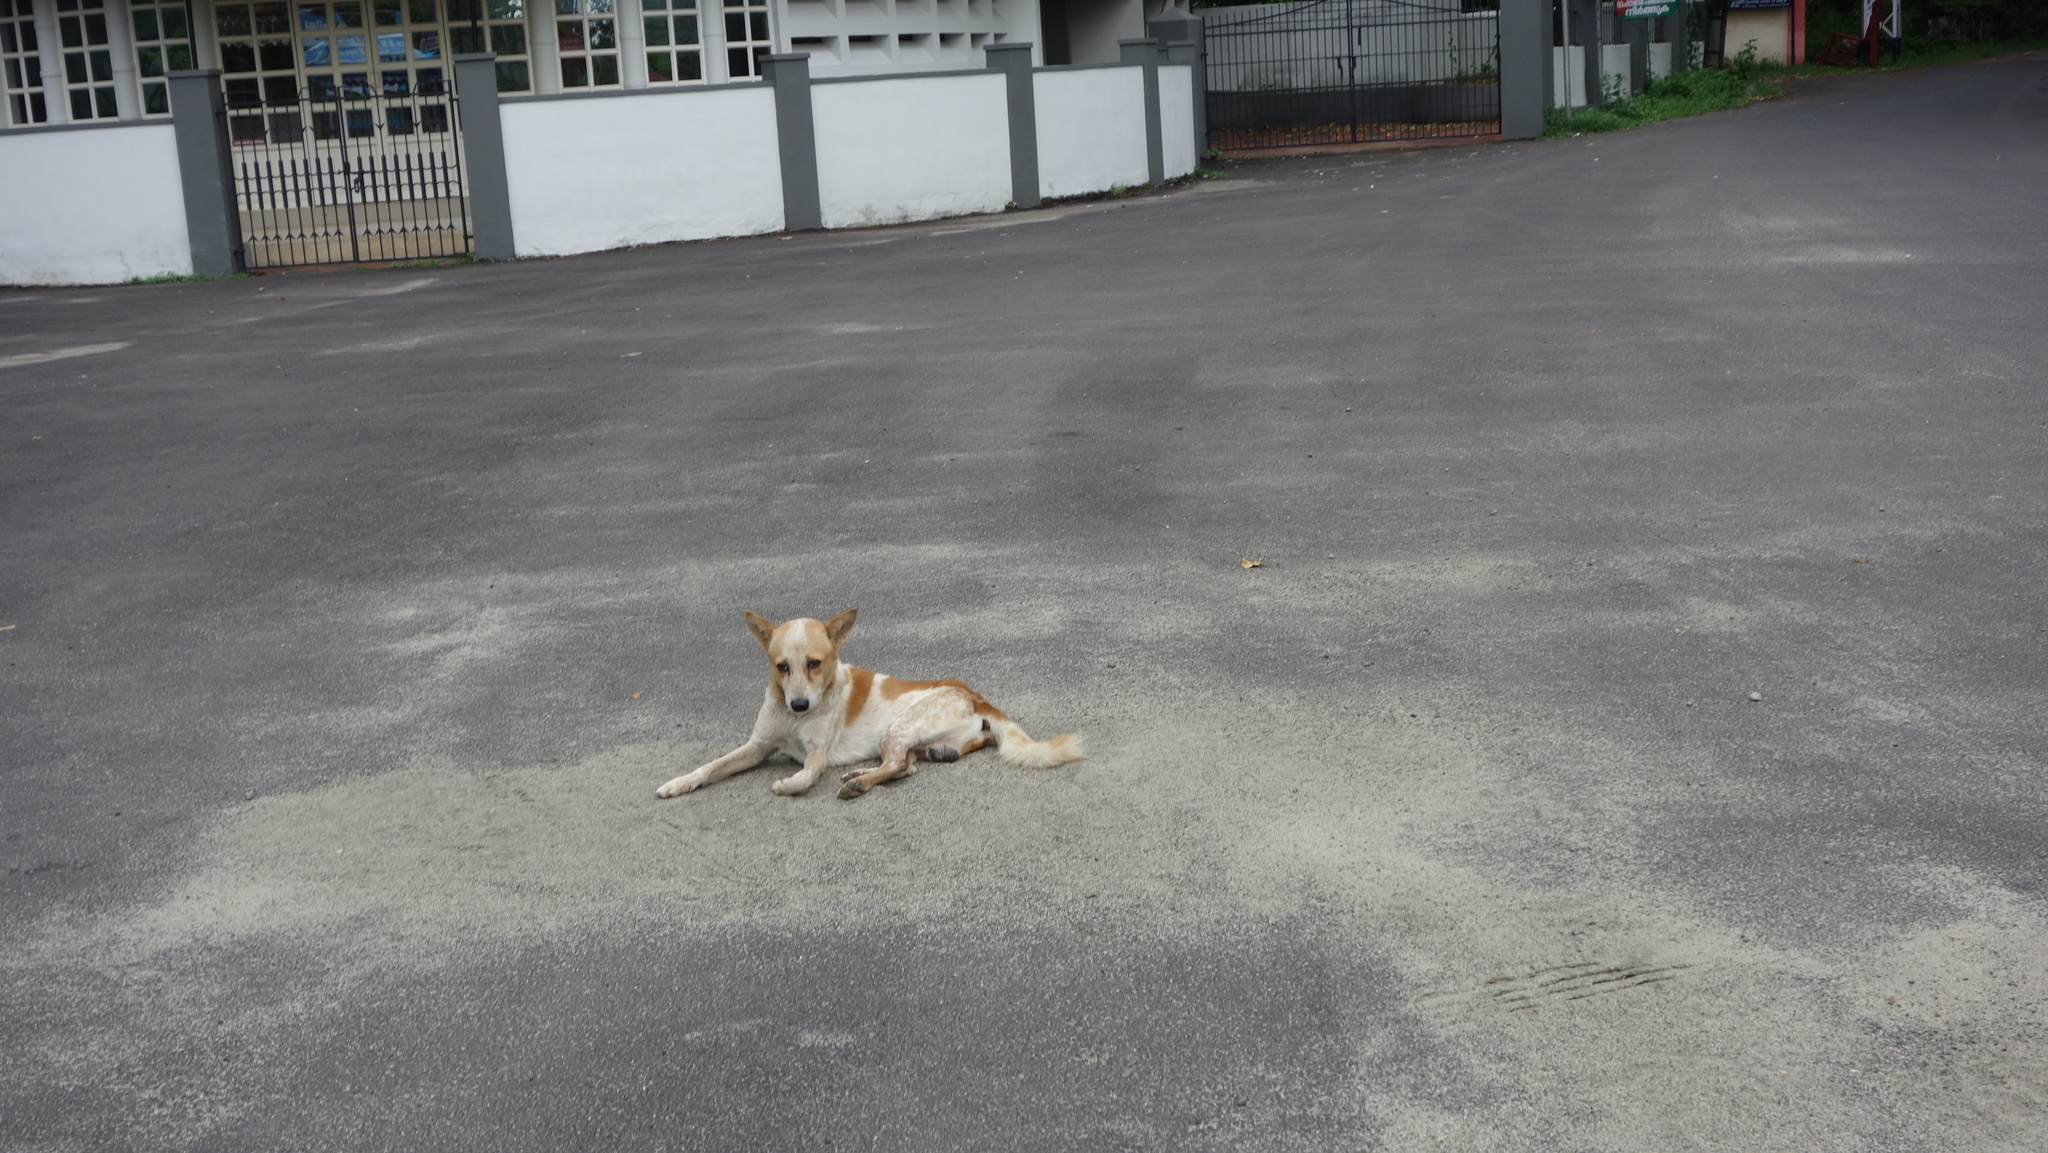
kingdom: Animalia
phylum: Chordata
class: Mammalia
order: Carnivora
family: Canidae
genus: Canis
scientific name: Canis lupus
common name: Gray wolf
